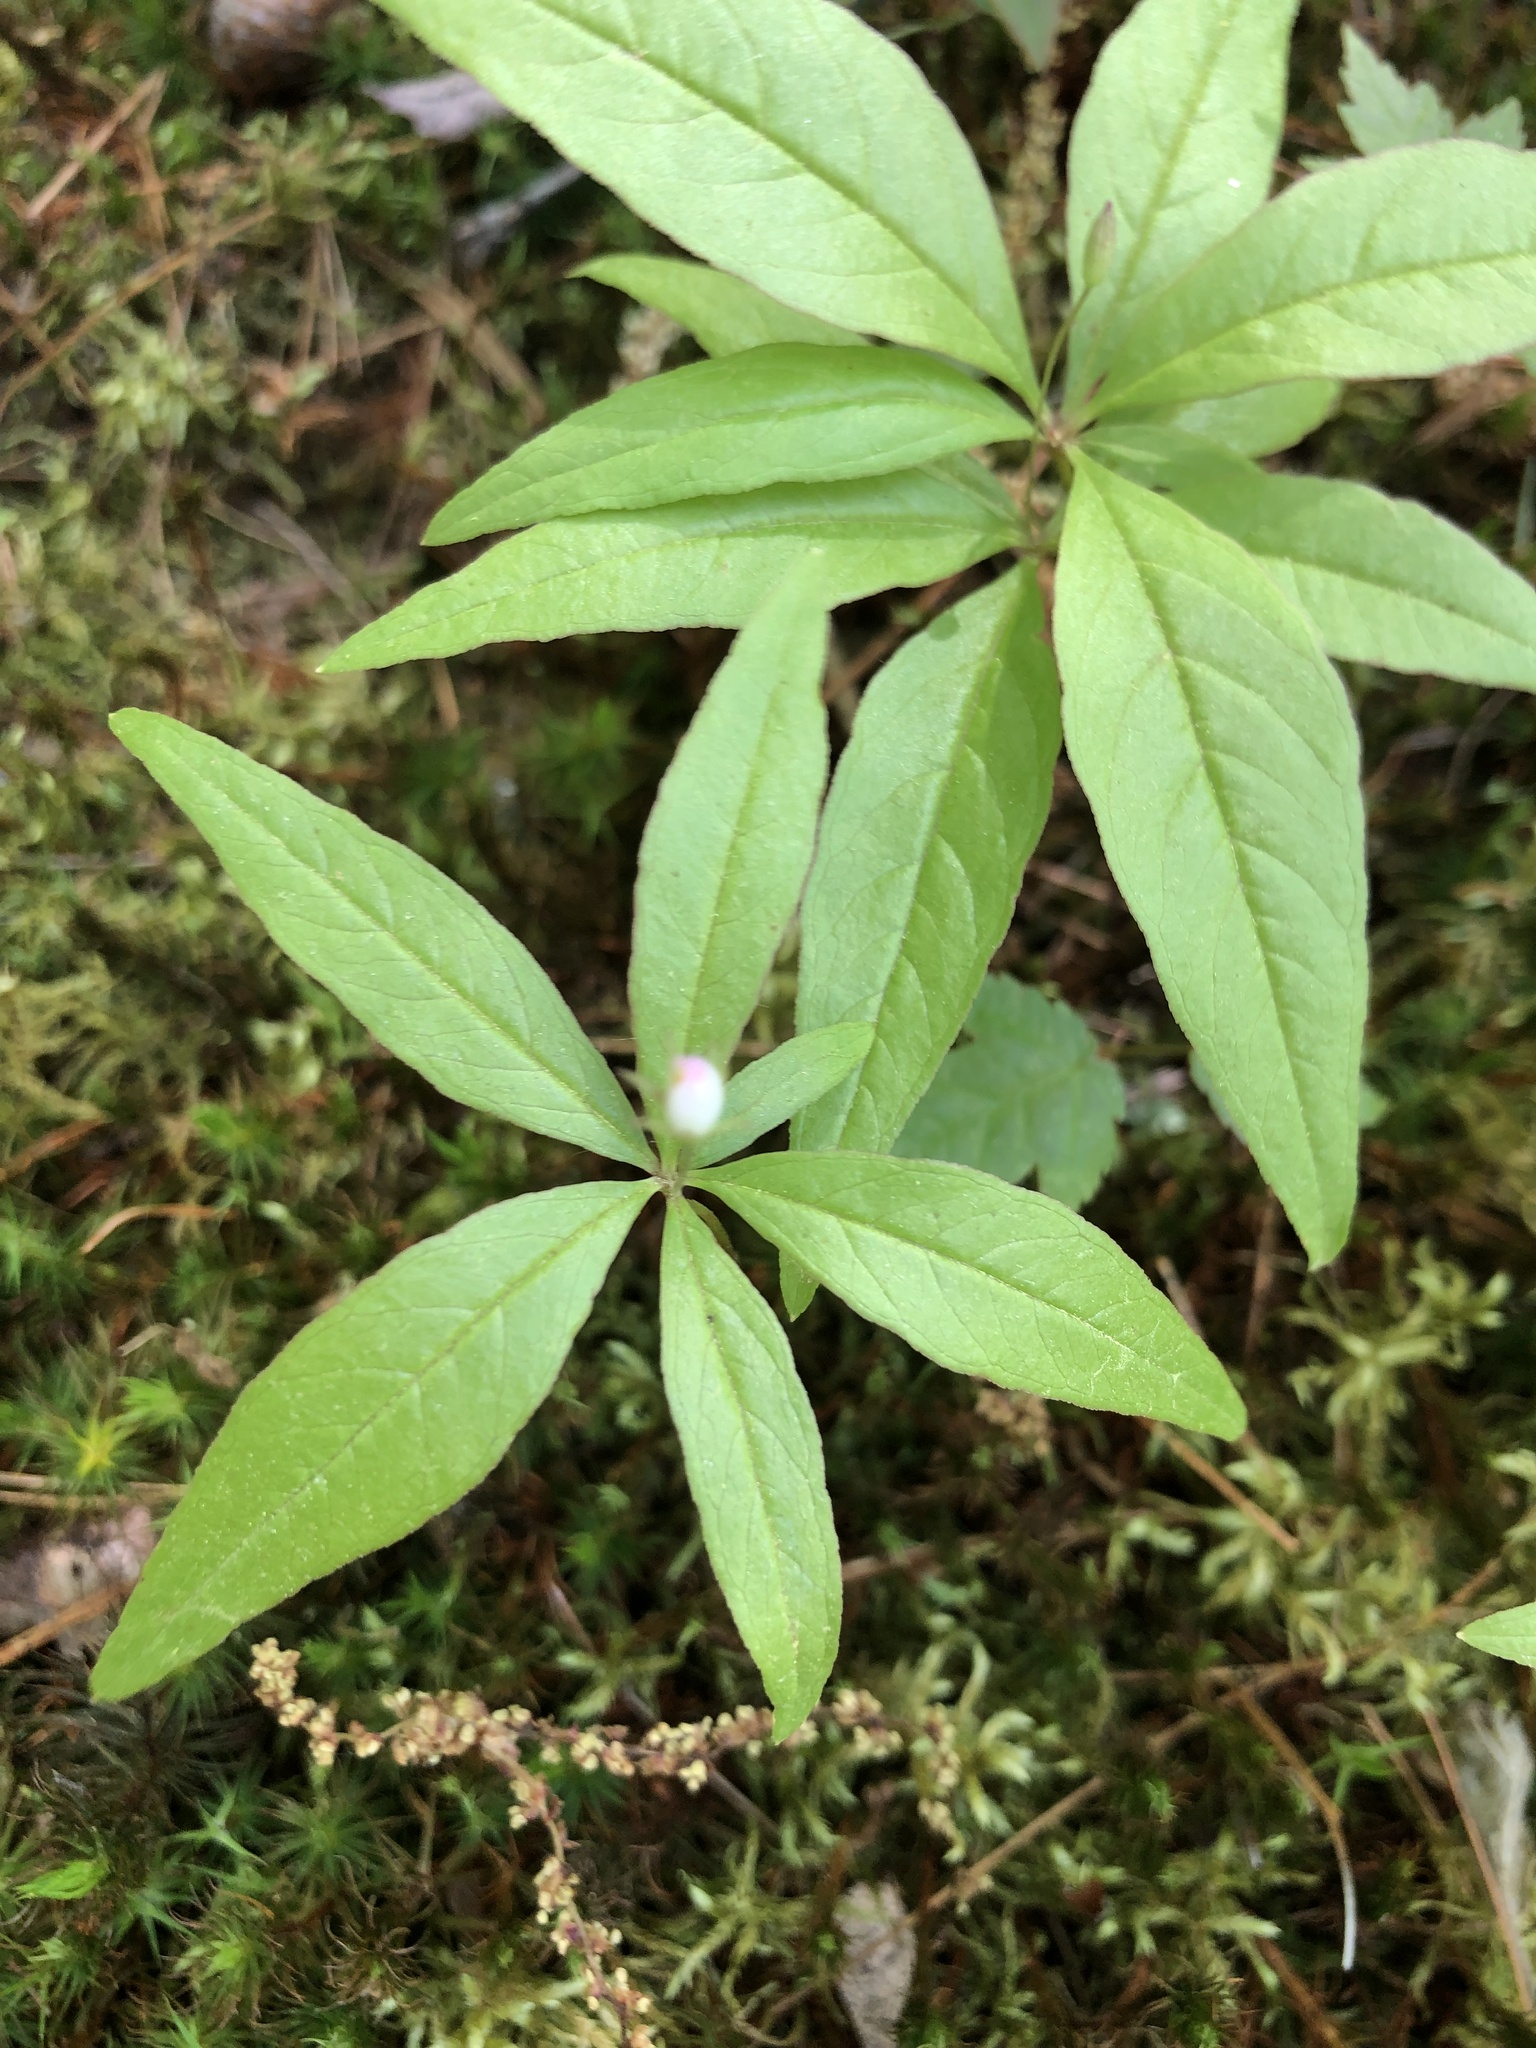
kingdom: Plantae
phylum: Tracheophyta
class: Magnoliopsida
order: Ericales
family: Primulaceae
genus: Lysimachia
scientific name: Lysimachia borealis
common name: American starflower
